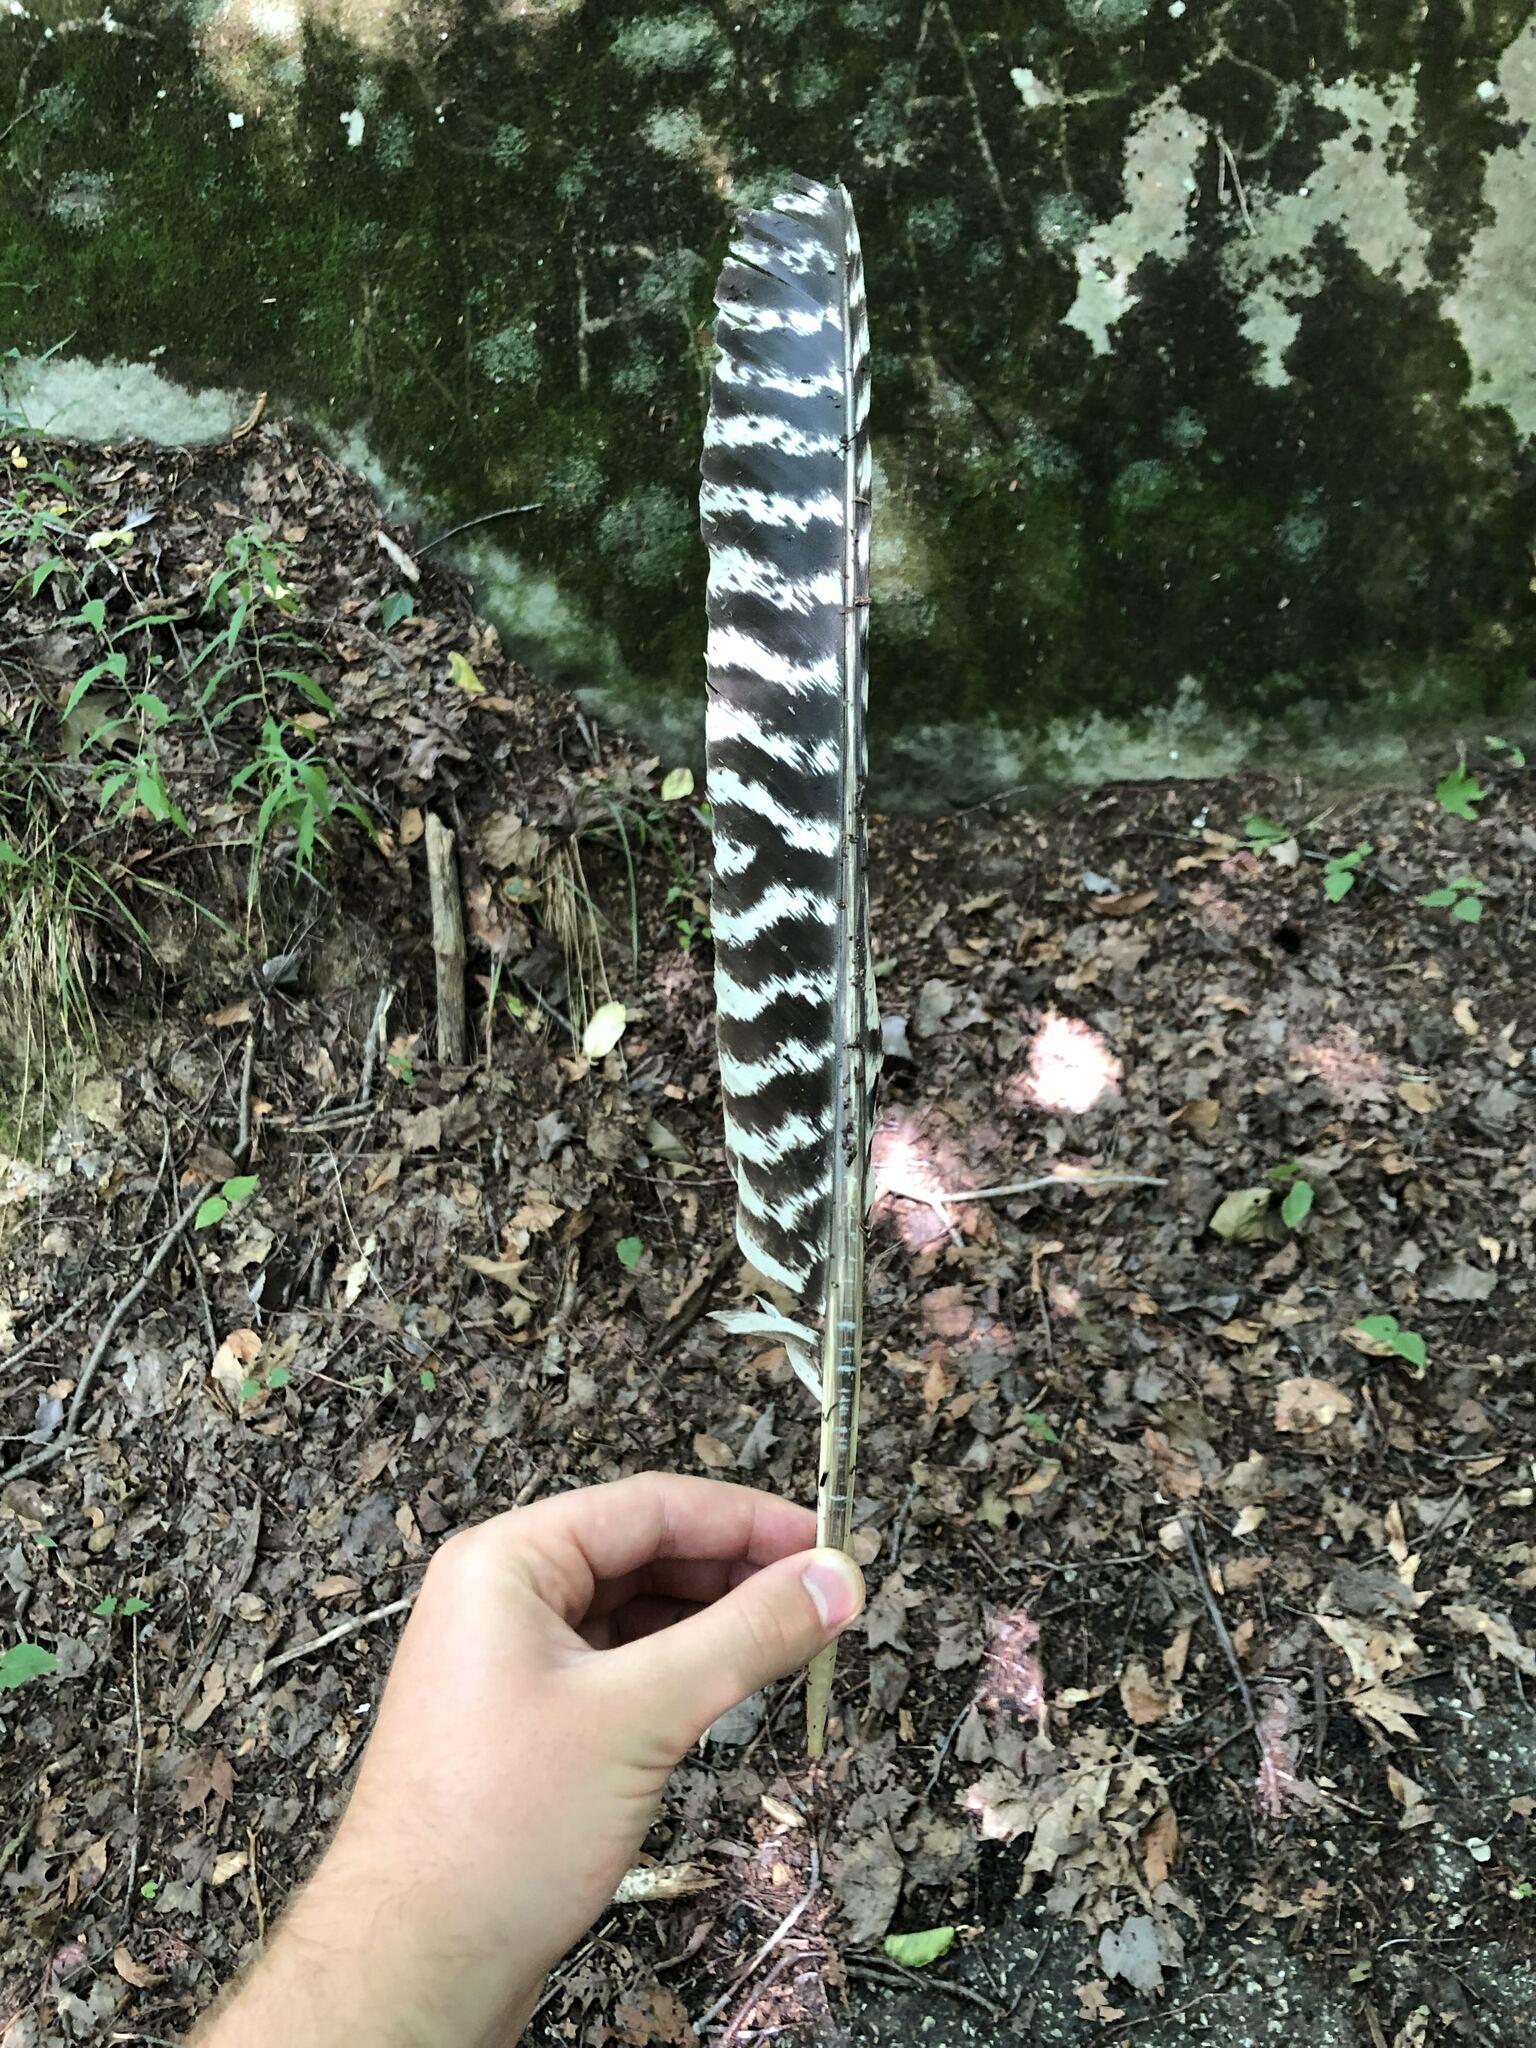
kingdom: Animalia
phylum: Chordata
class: Aves
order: Galliformes
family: Phasianidae
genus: Meleagris
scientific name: Meleagris gallopavo
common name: Wild turkey
